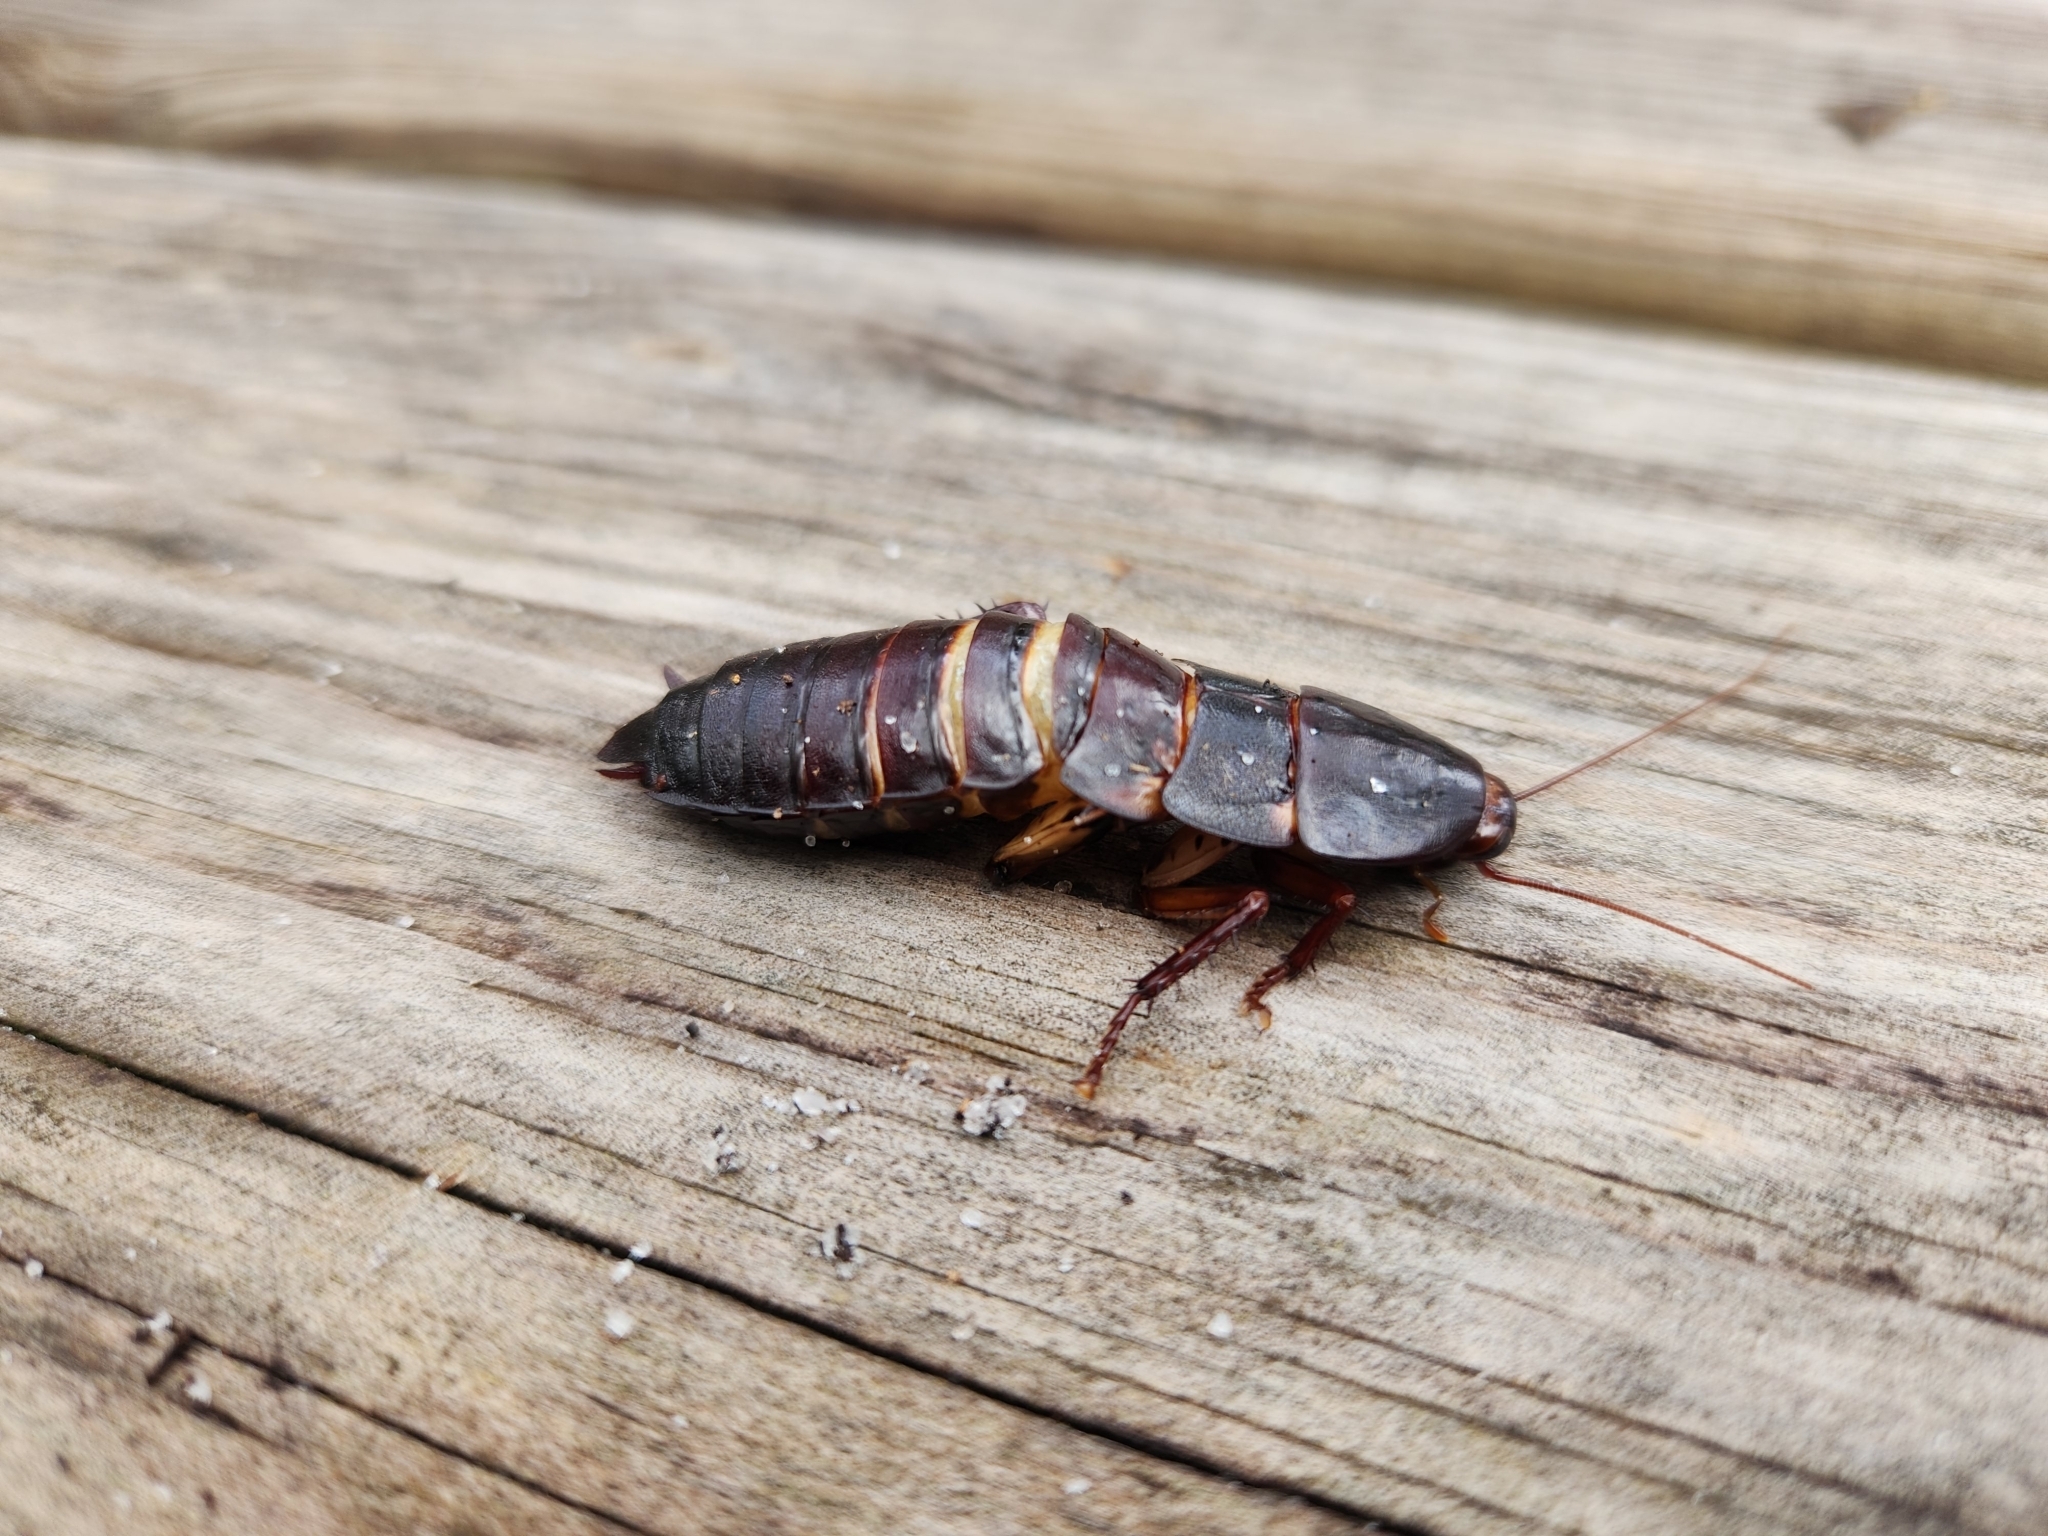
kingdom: Animalia
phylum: Arthropoda
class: Insecta
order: Blattodea
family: Blattidae
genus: Eurycotis
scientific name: Eurycotis floridana
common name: Florida cockroach
